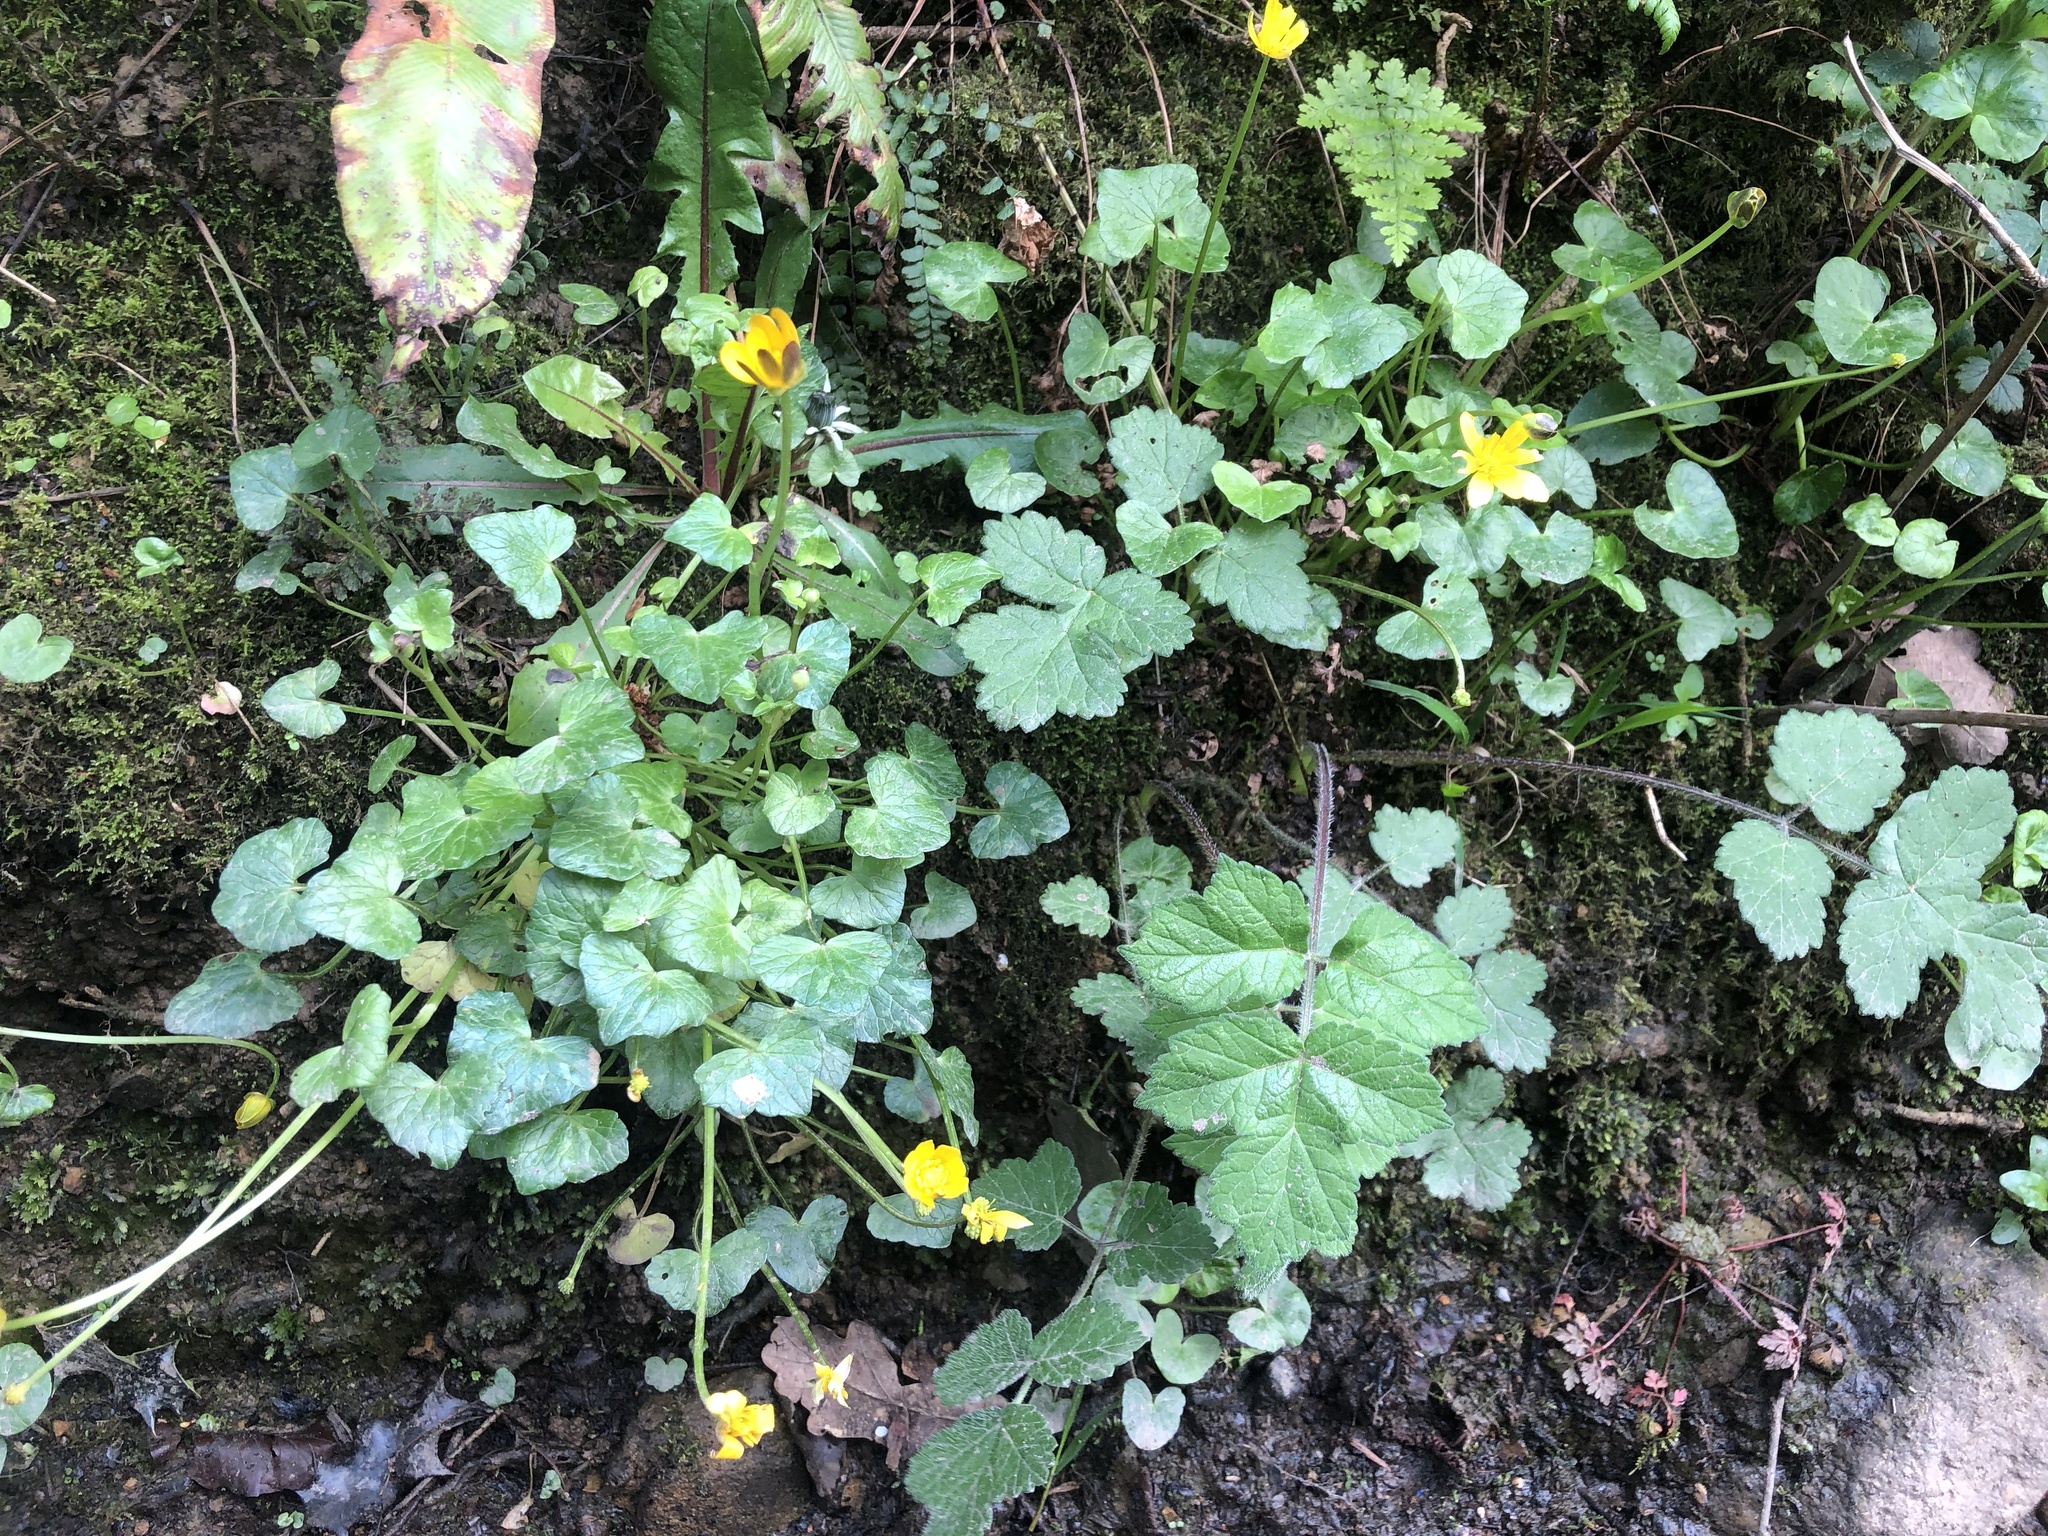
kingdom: Plantae
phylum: Tracheophyta
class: Magnoliopsida
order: Ranunculales
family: Ranunculaceae
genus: Ficaria
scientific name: Ficaria verna
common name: Lesser celandine
